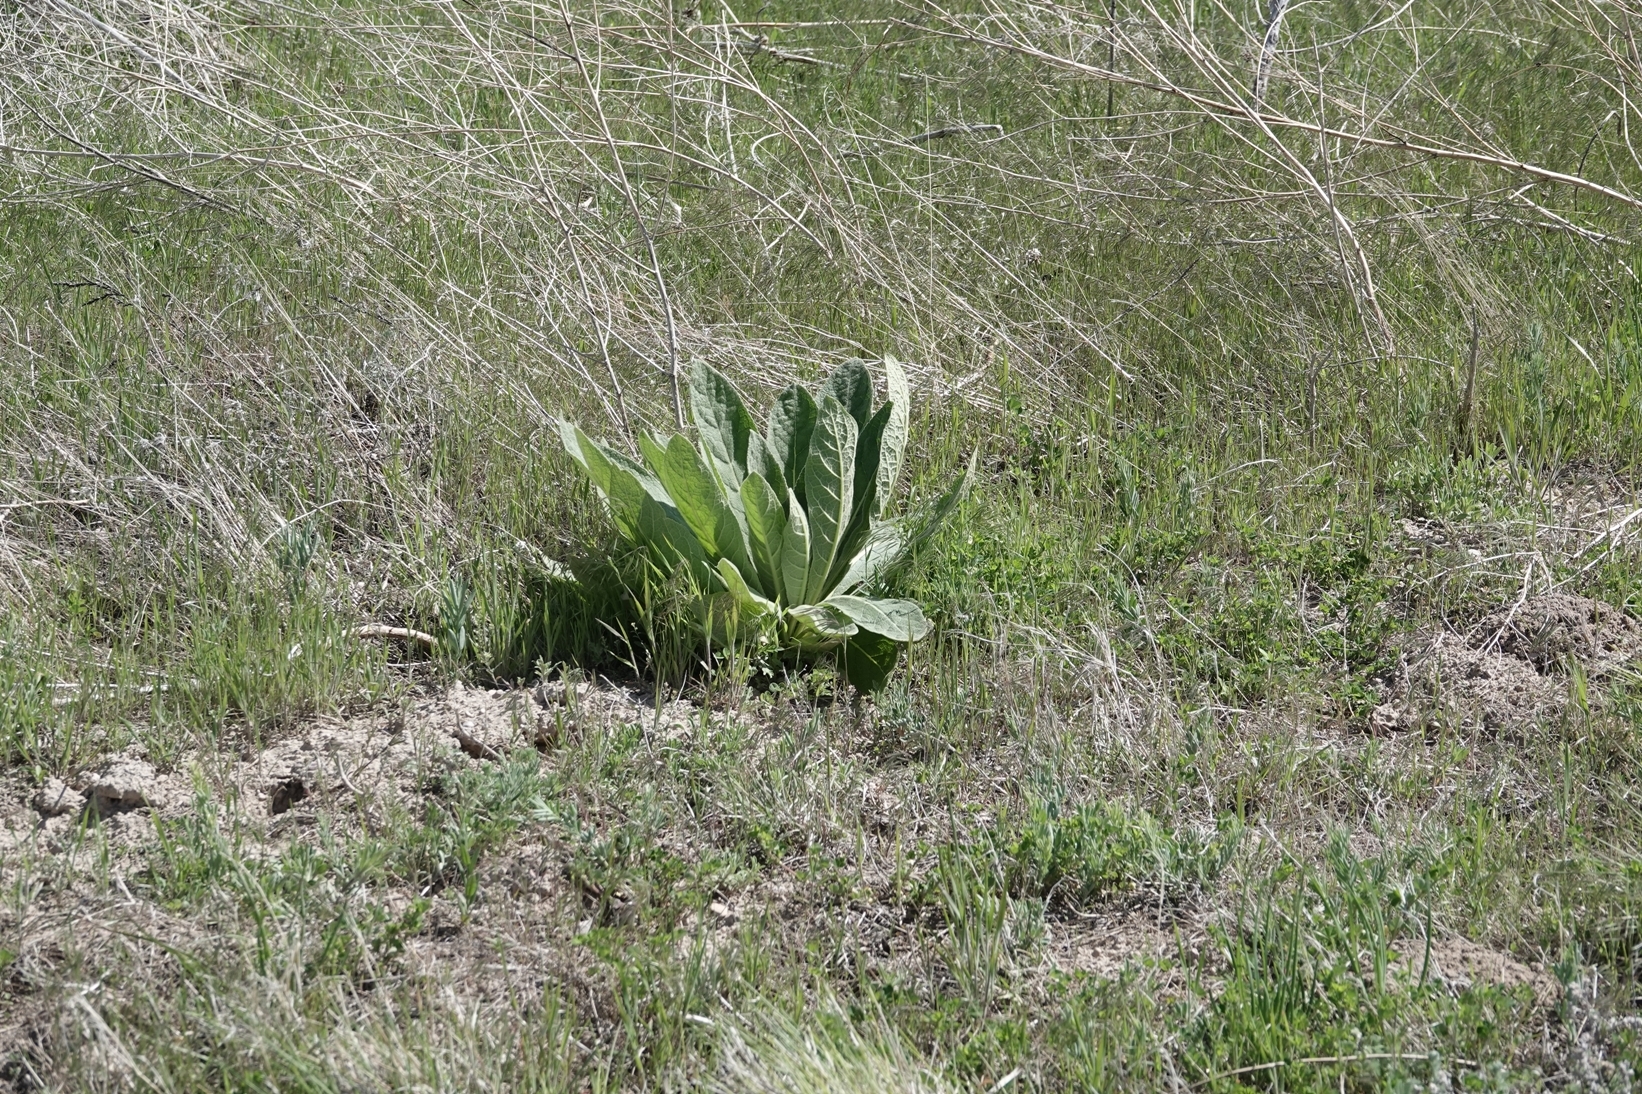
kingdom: Plantae
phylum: Tracheophyta
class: Magnoliopsida
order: Lamiales
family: Scrophulariaceae
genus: Verbascum
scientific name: Verbascum thapsus
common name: Common mullein
